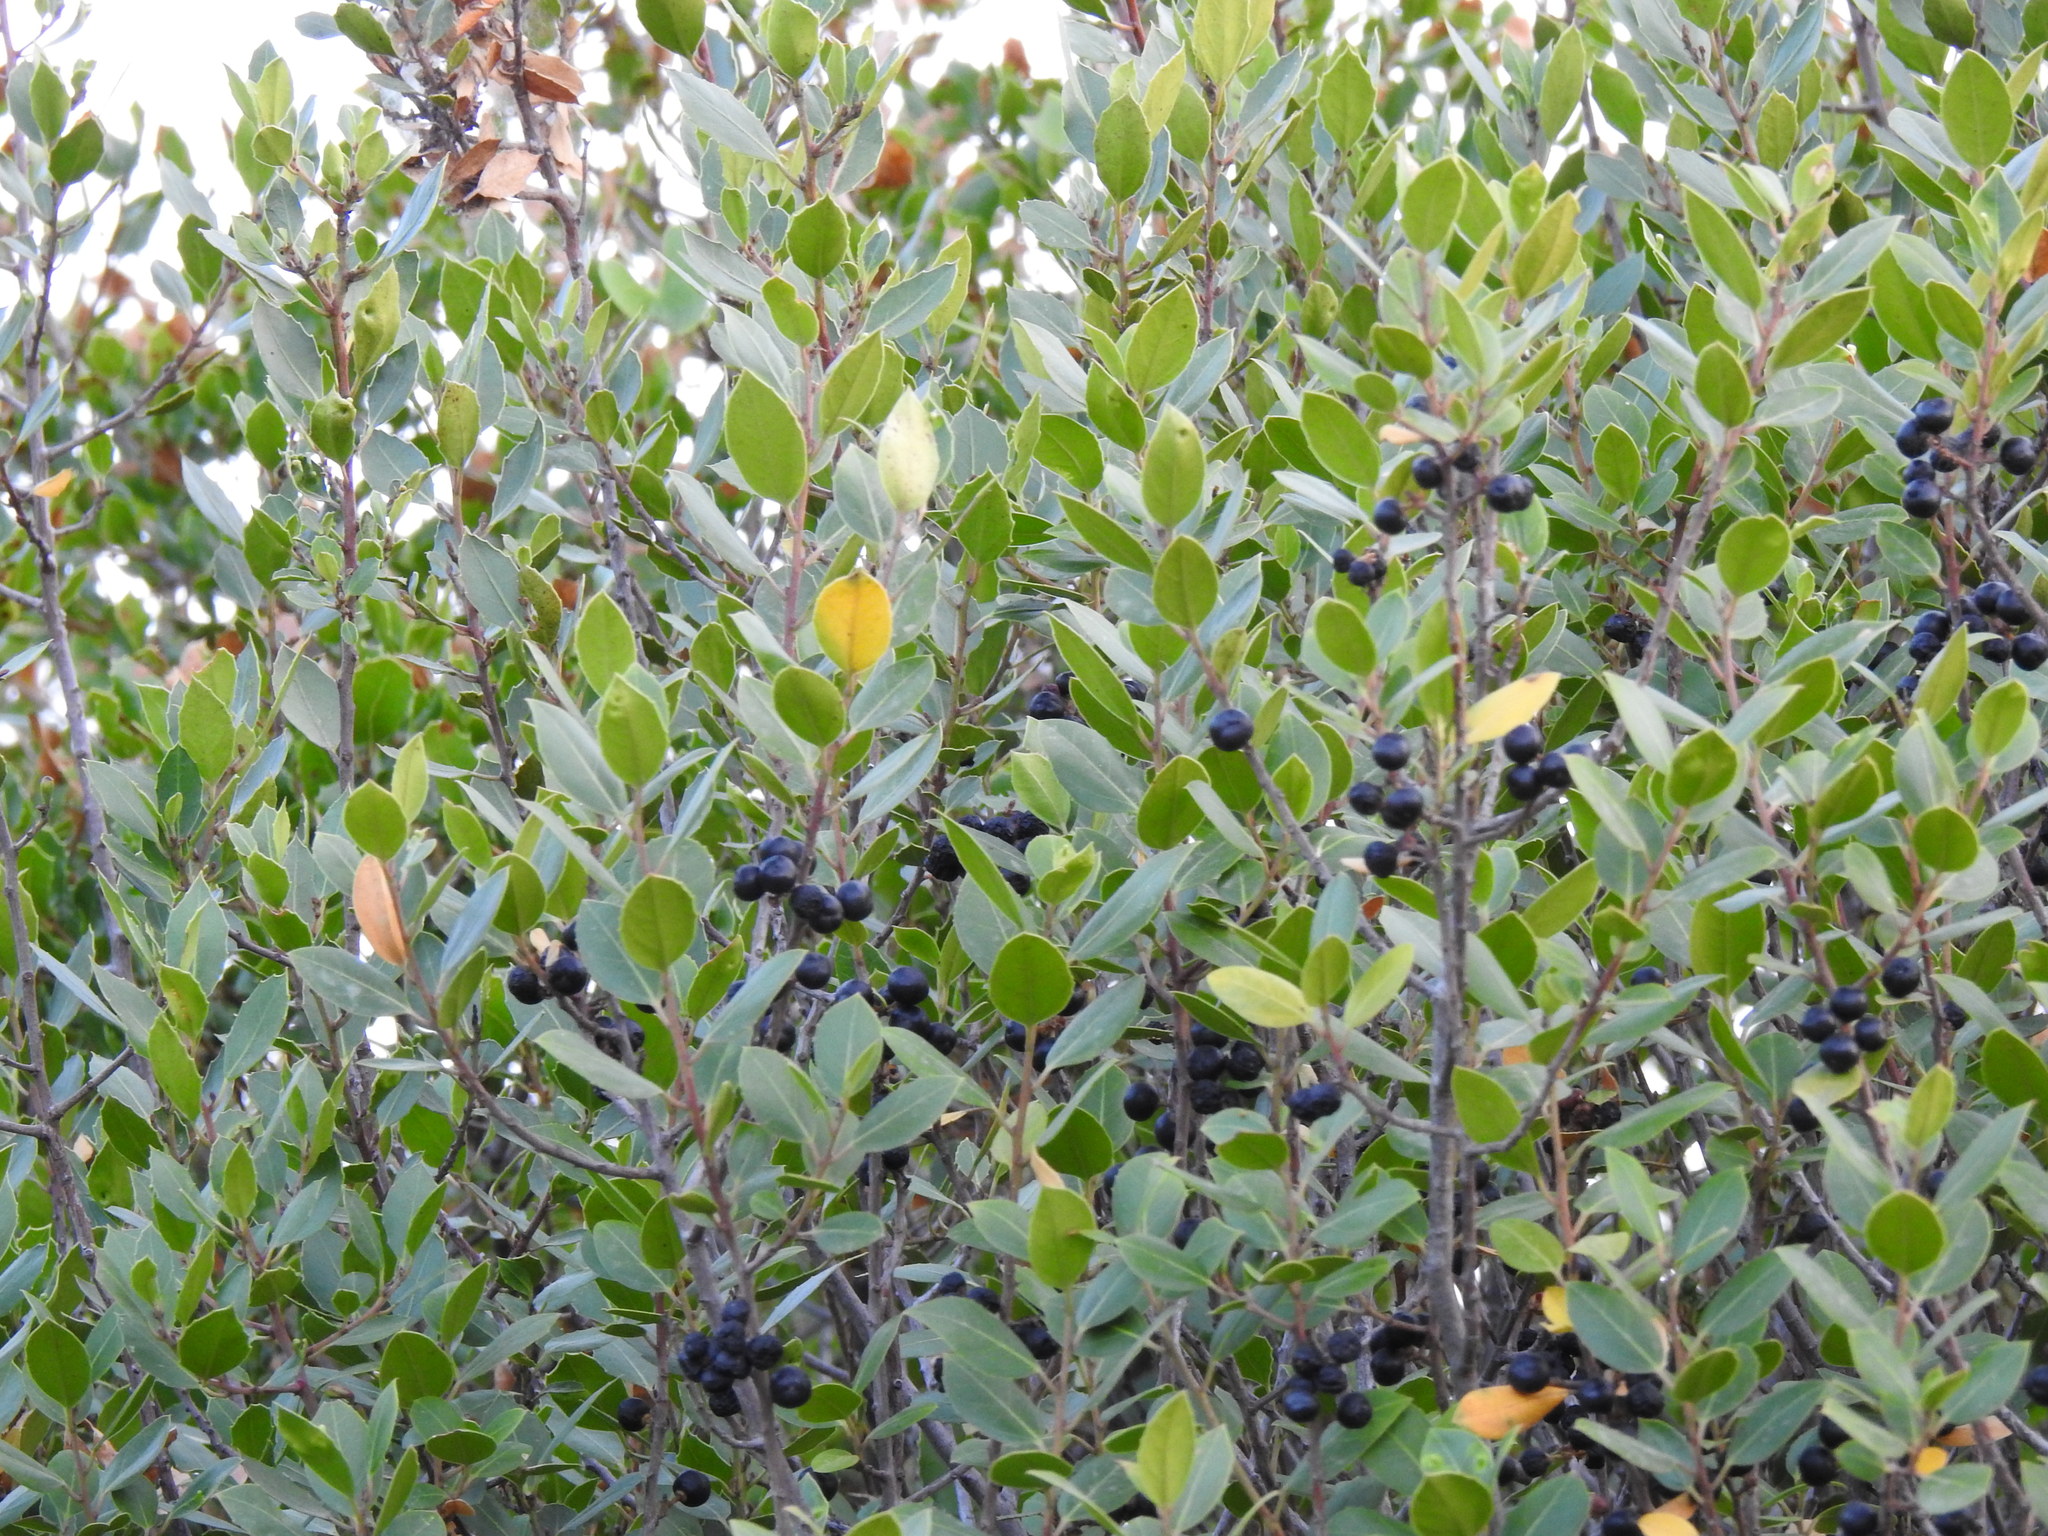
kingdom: Plantae
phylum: Tracheophyta
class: Magnoliopsida
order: Rosales
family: Rhamnaceae
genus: Rhamnus
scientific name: Rhamnus alaternus
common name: Mediterranean buckthorn
